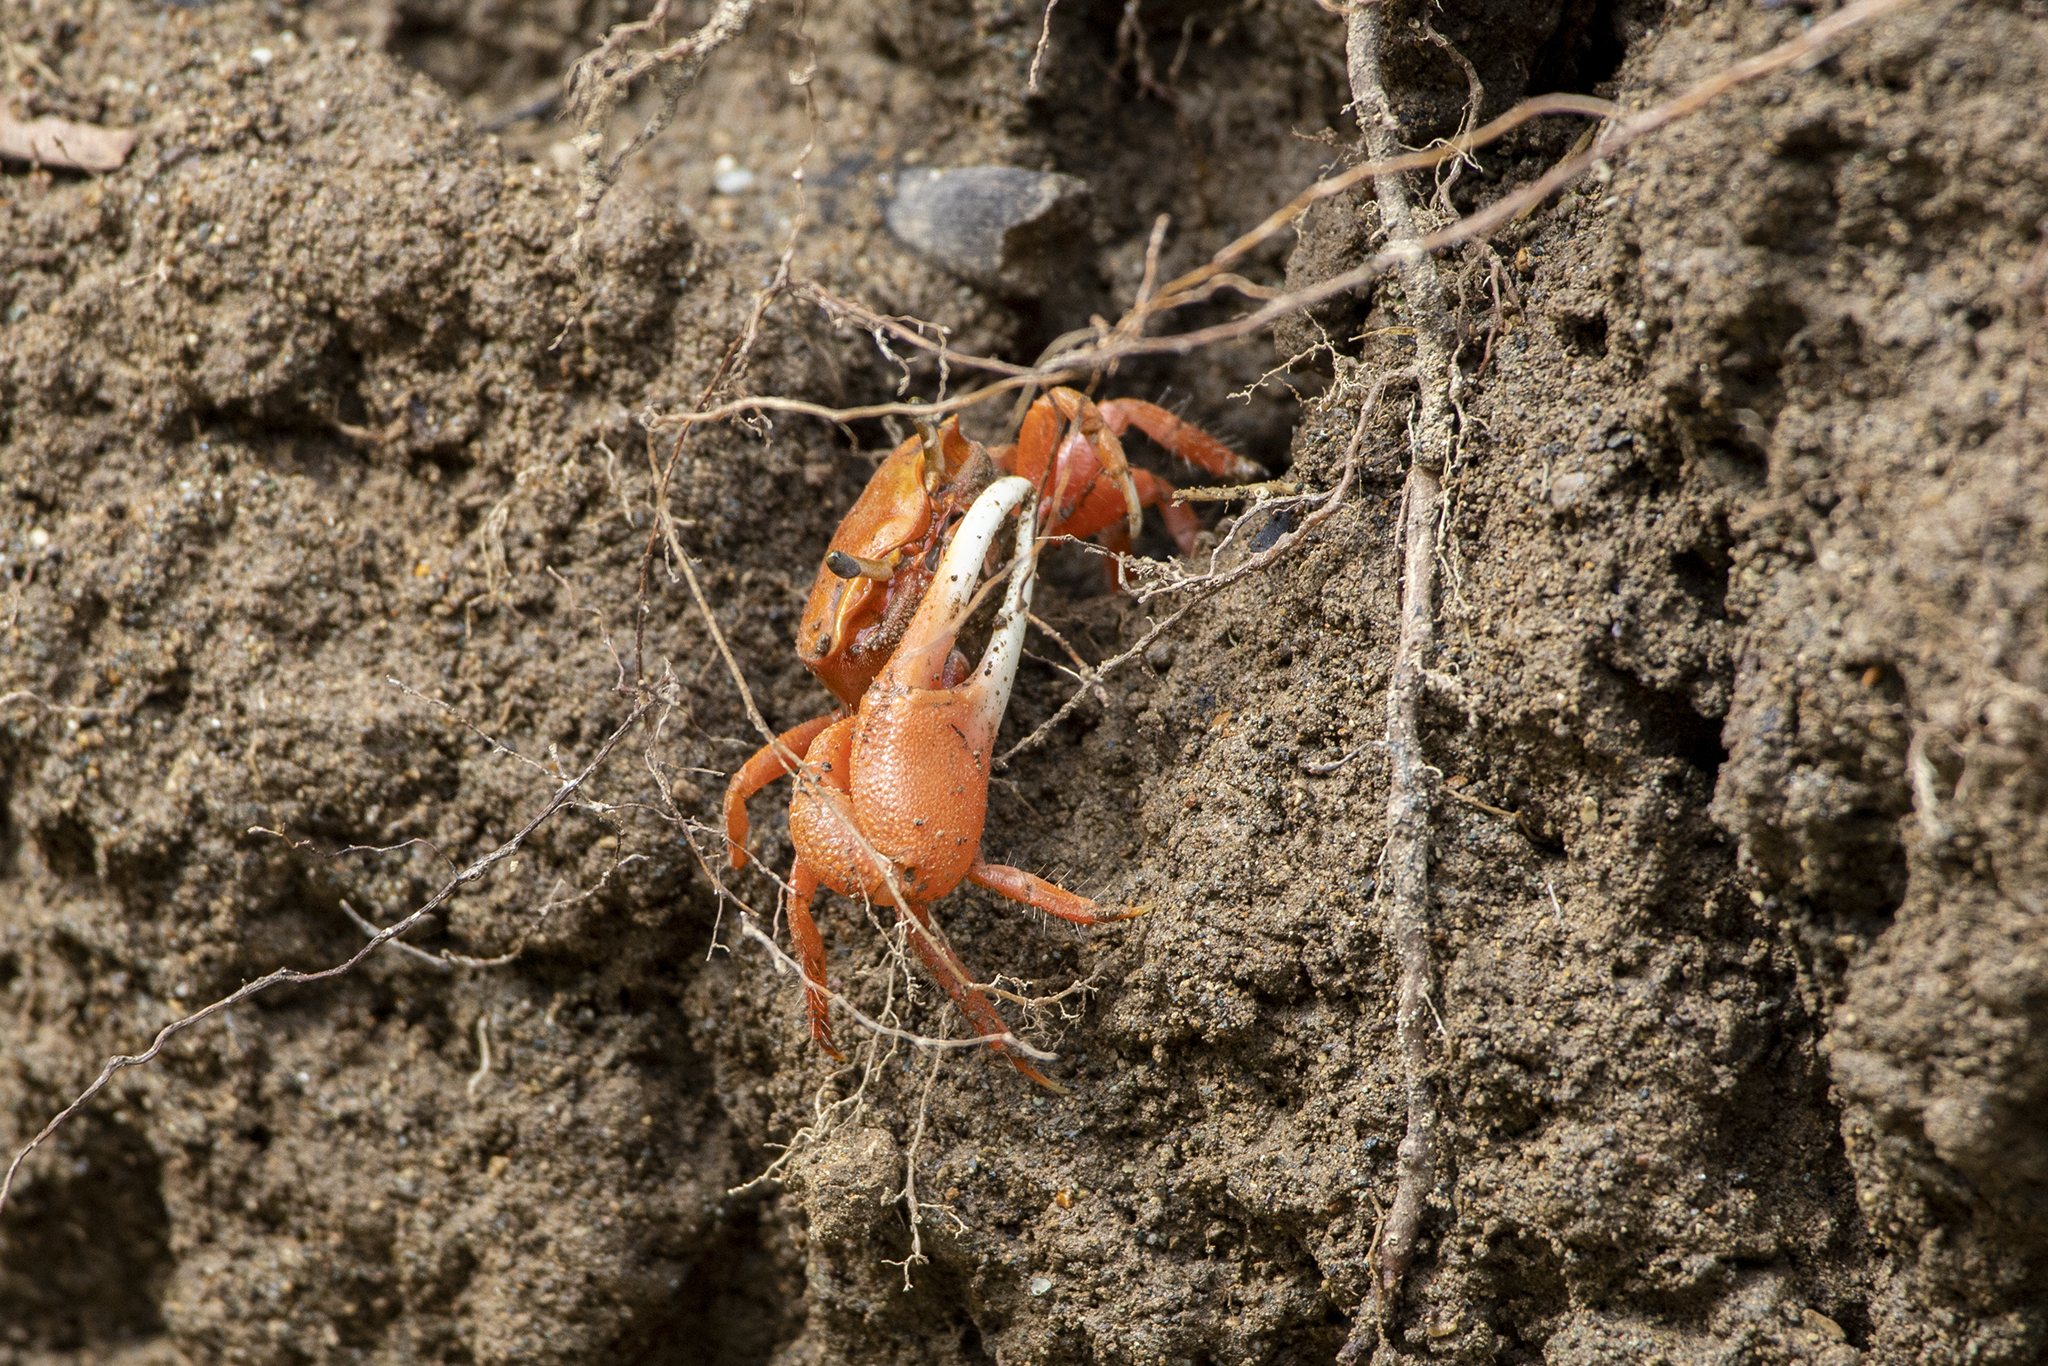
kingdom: Animalia
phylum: Arthropoda
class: Malacostraca
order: Decapoda
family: Ocypodidae
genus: Minuca
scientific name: Minuca ecuadoriensis
